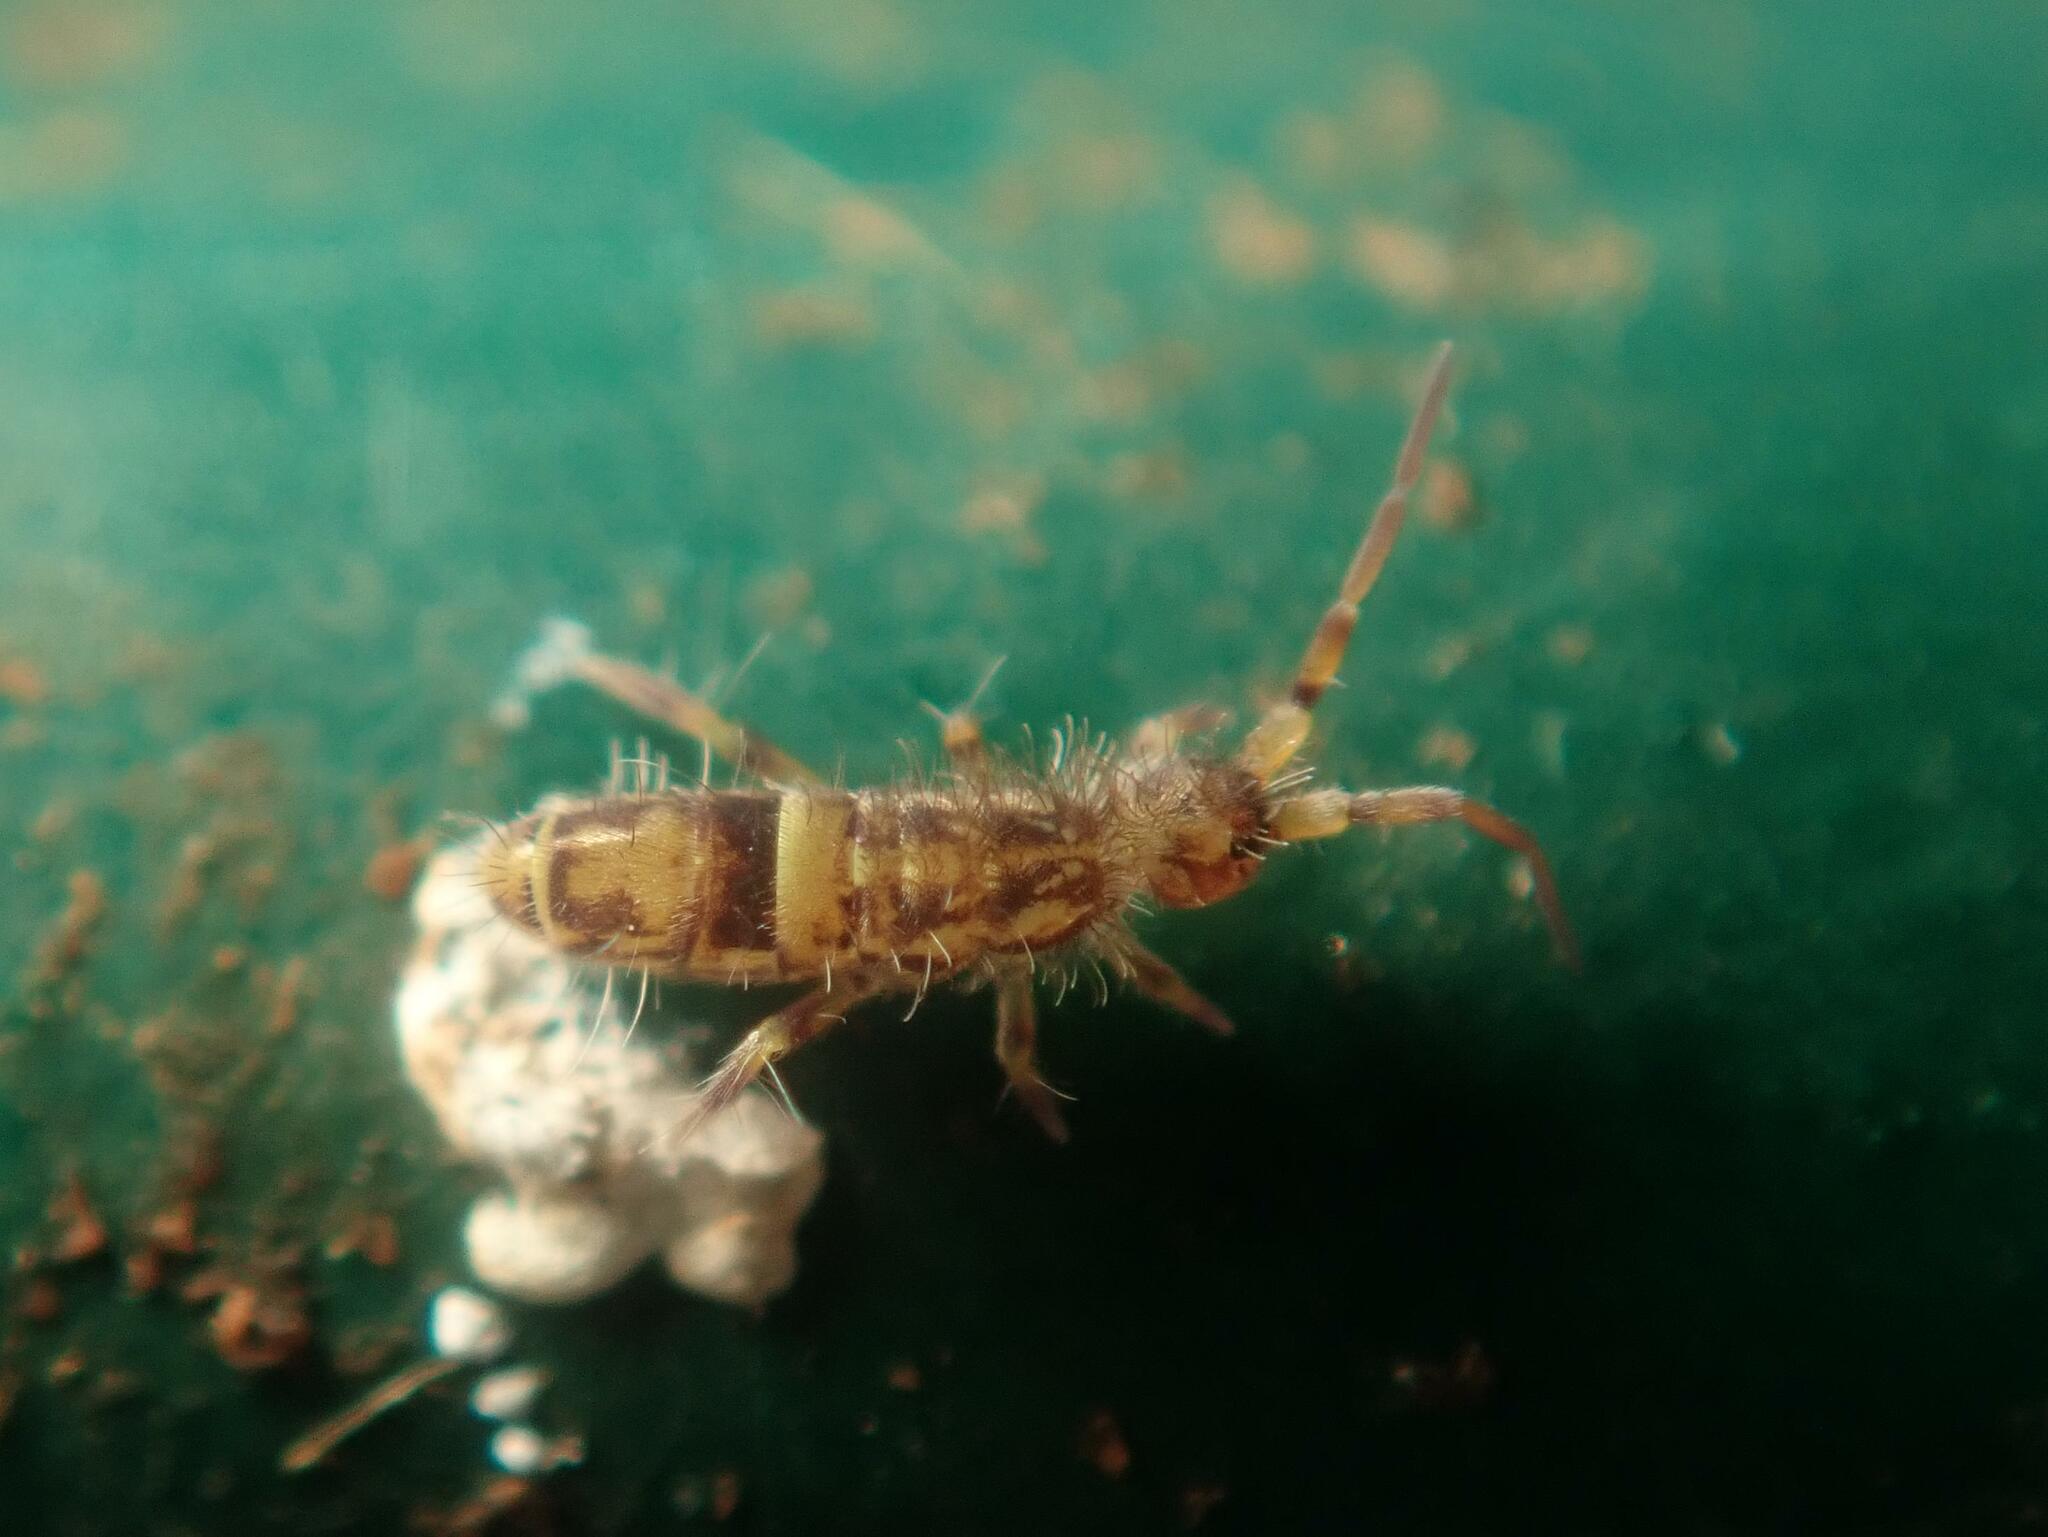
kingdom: Animalia
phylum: Arthropoda
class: Collembola
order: Entomobryomorpha
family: Orchesellidae
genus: Orchesella
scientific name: Orchesella cincta
